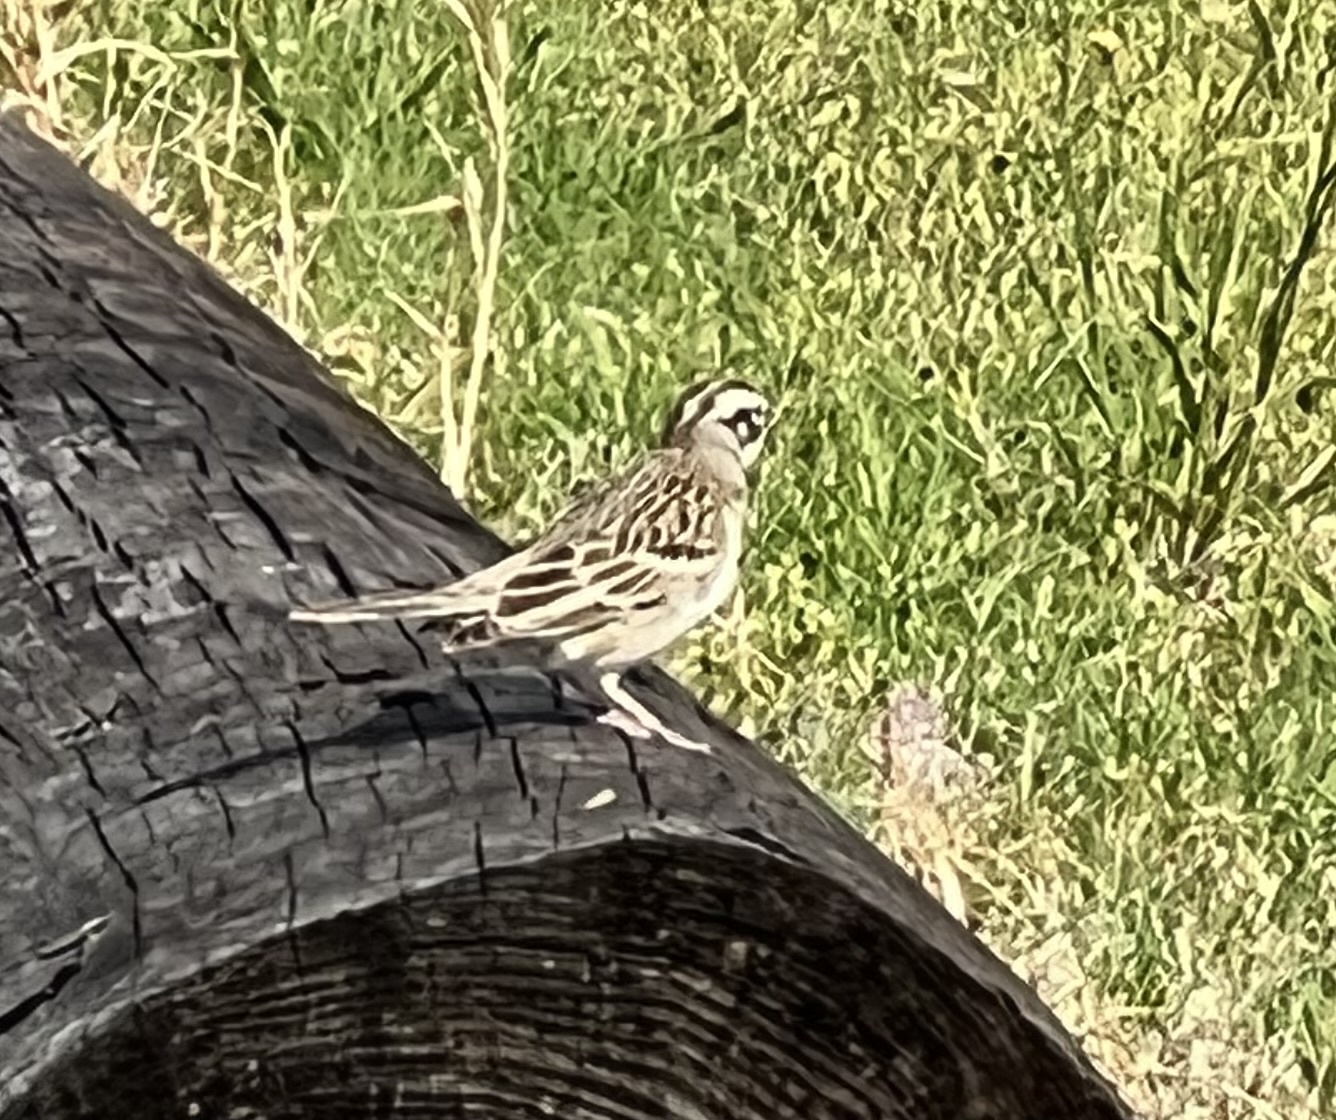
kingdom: Animalia
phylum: Chordata
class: Aves
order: Passeriformes
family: Passerellidae
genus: Chondestes
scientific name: Chondestes grammacus
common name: Lark sparrow
